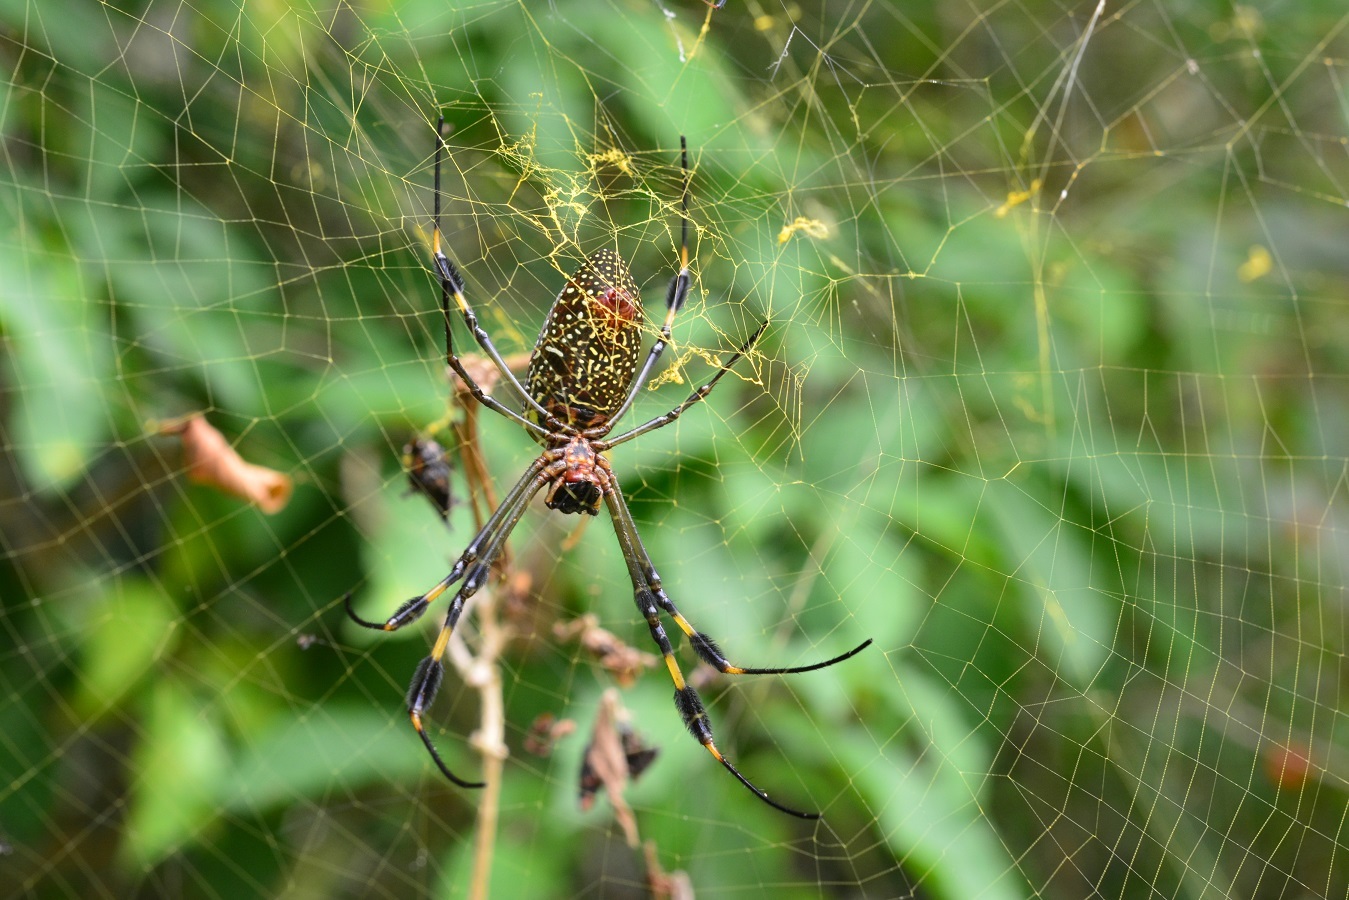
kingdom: Animalia
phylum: Arthropoda
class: Arachnida
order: Araneae
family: Araneidae
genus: Trichonephila
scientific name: Trichonephila clavipes
